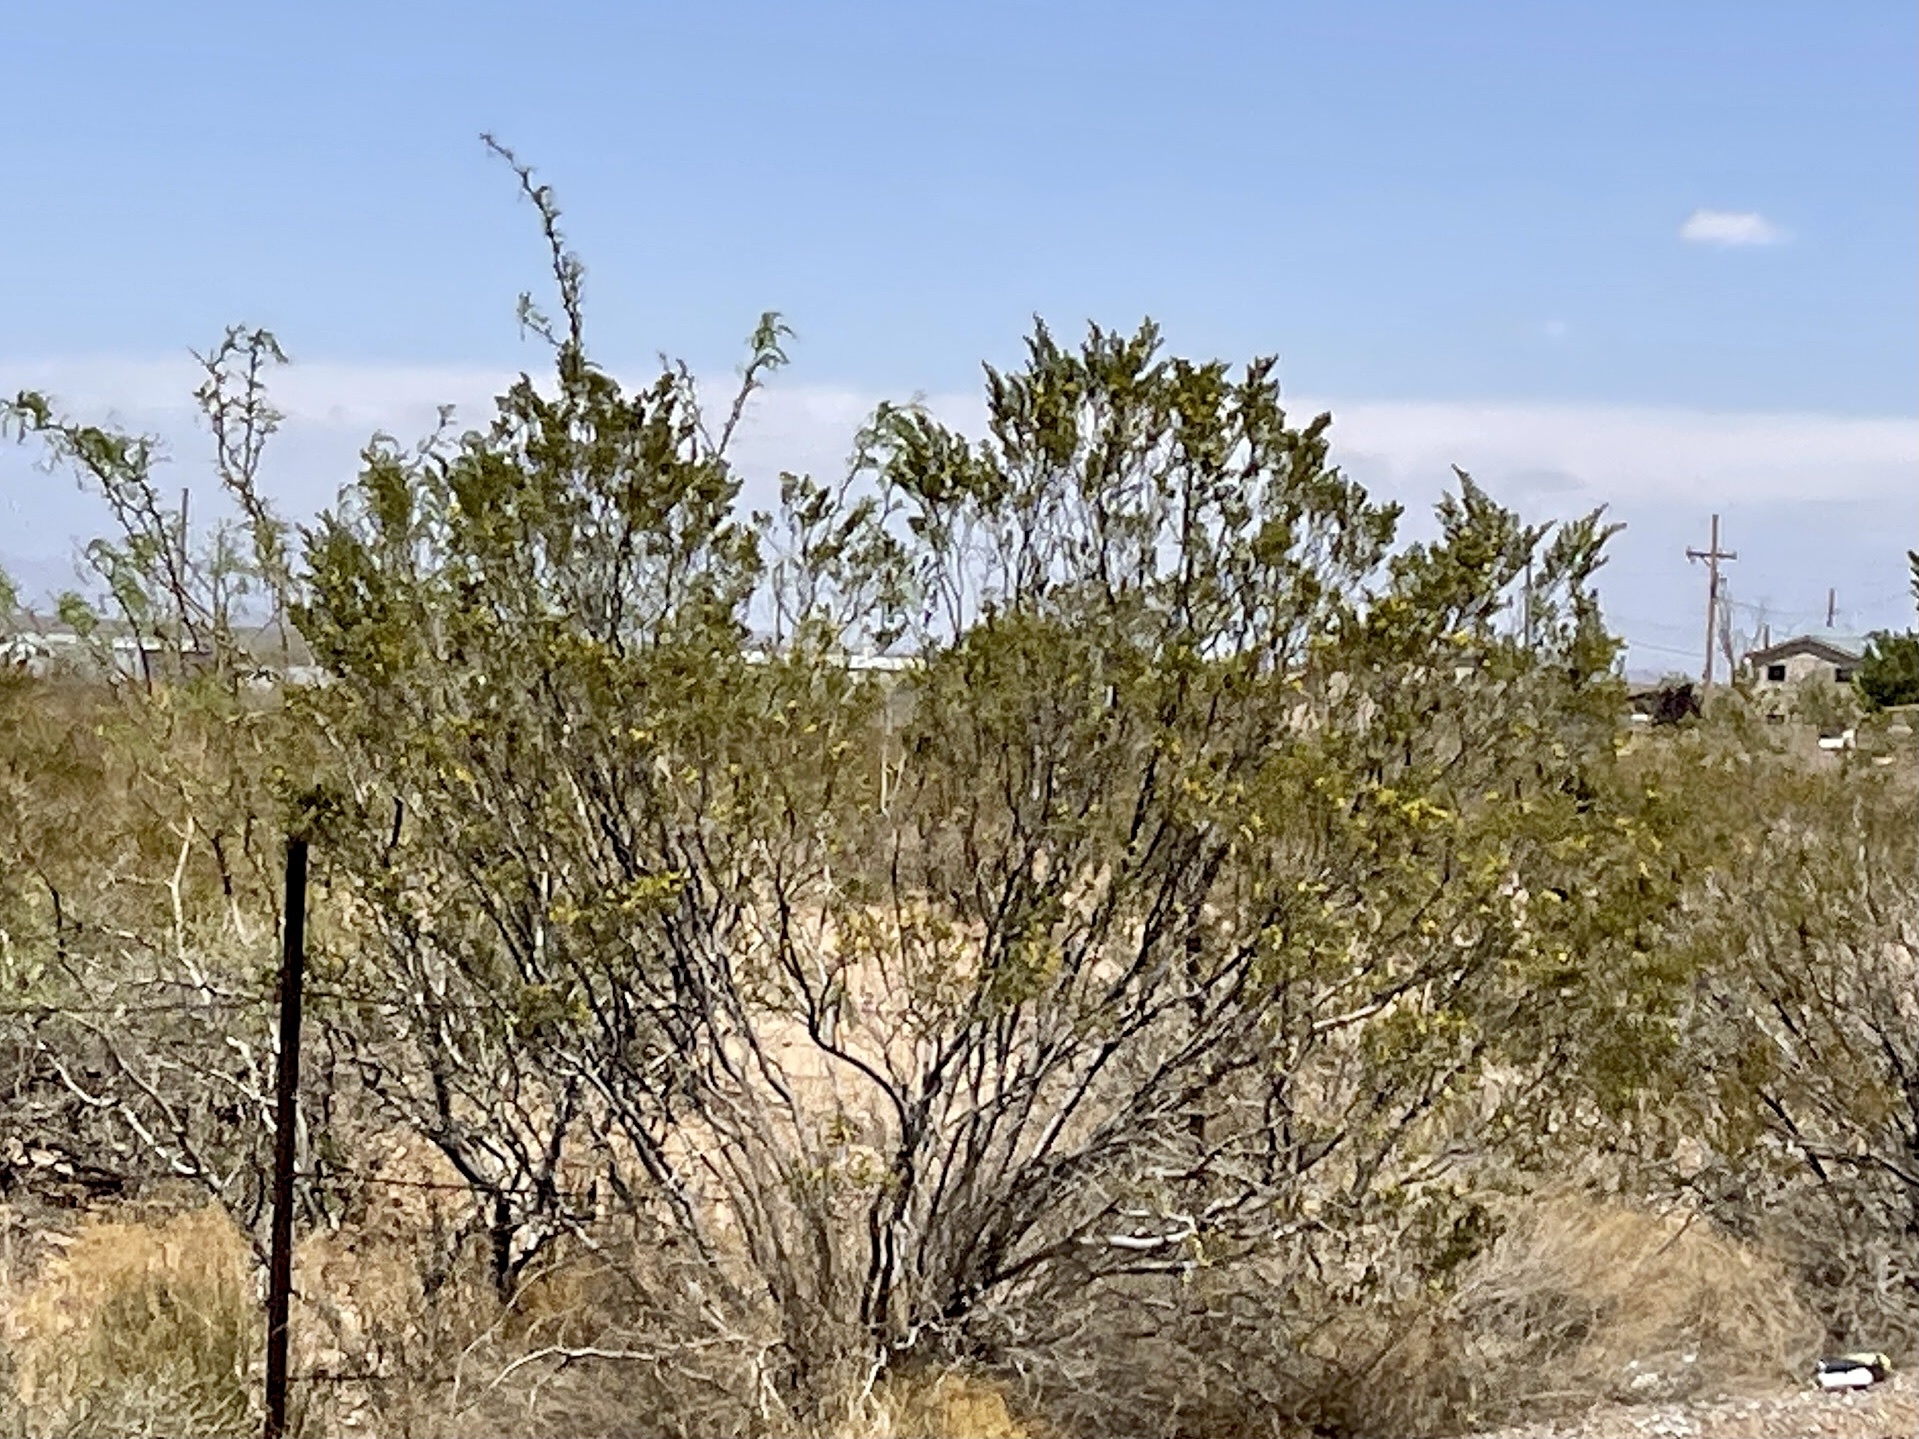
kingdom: Plantae
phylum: Tracheophyta
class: Magnoliopsida
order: Zygophyllales
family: Zygophyllaceae
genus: Larrea
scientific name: Larrea tridentata
